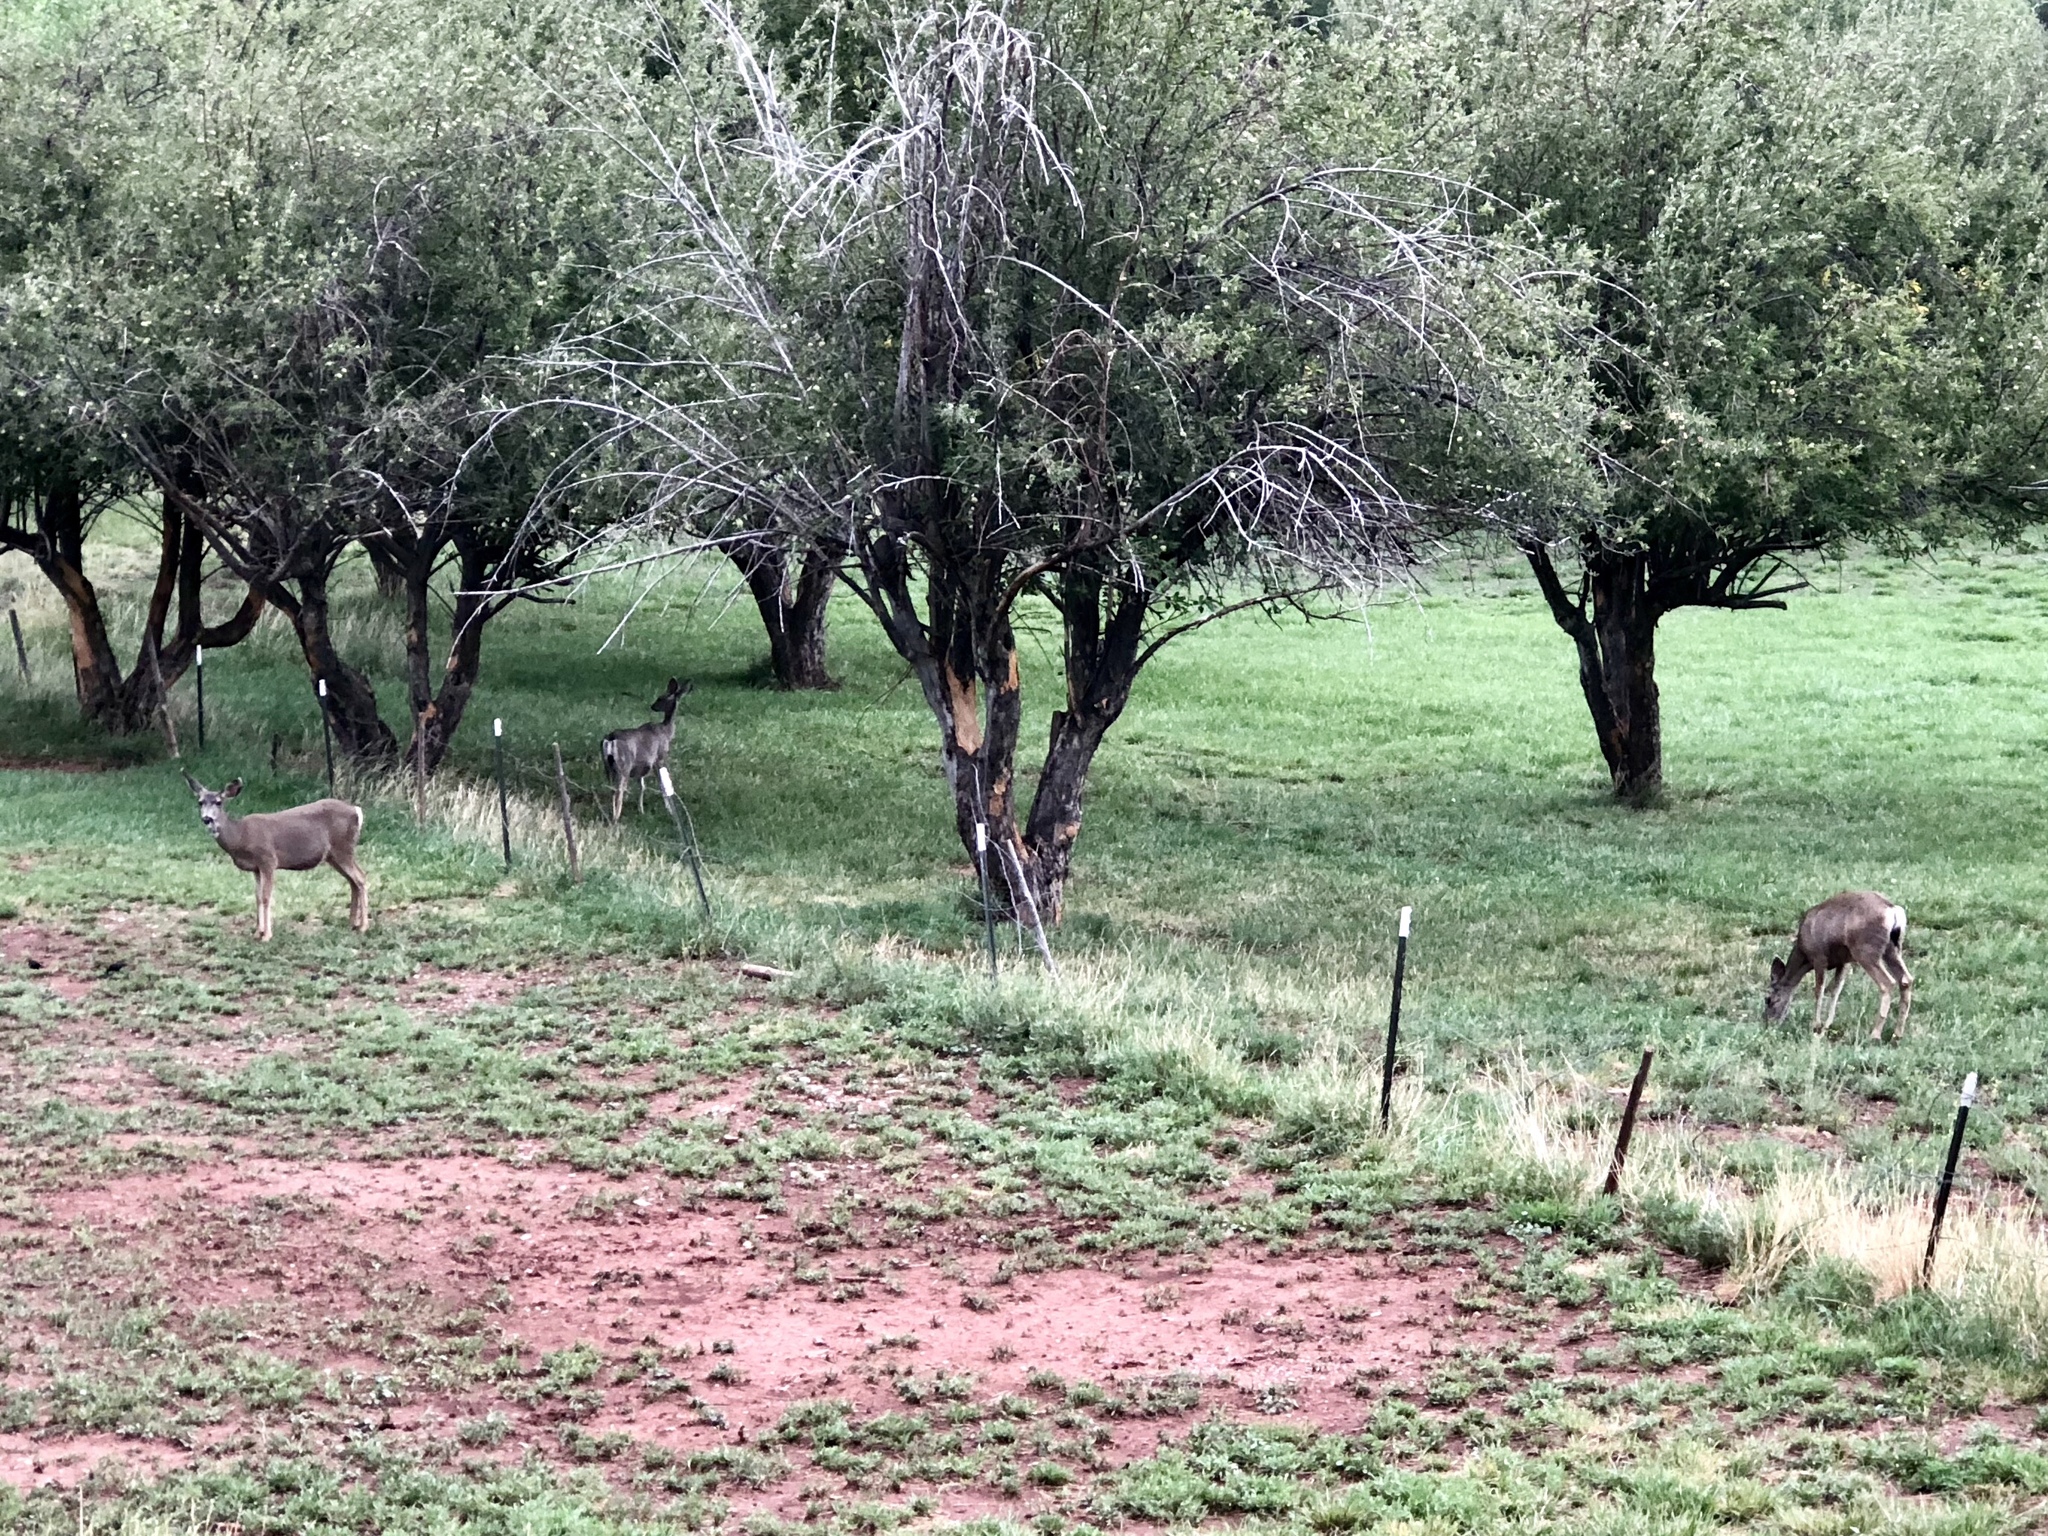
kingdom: Animalia
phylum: Chordata
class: Mammalia
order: Artiodactyla
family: Cervidae
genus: Odocoileus
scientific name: Odocoileus hemionus
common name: Mule deer
